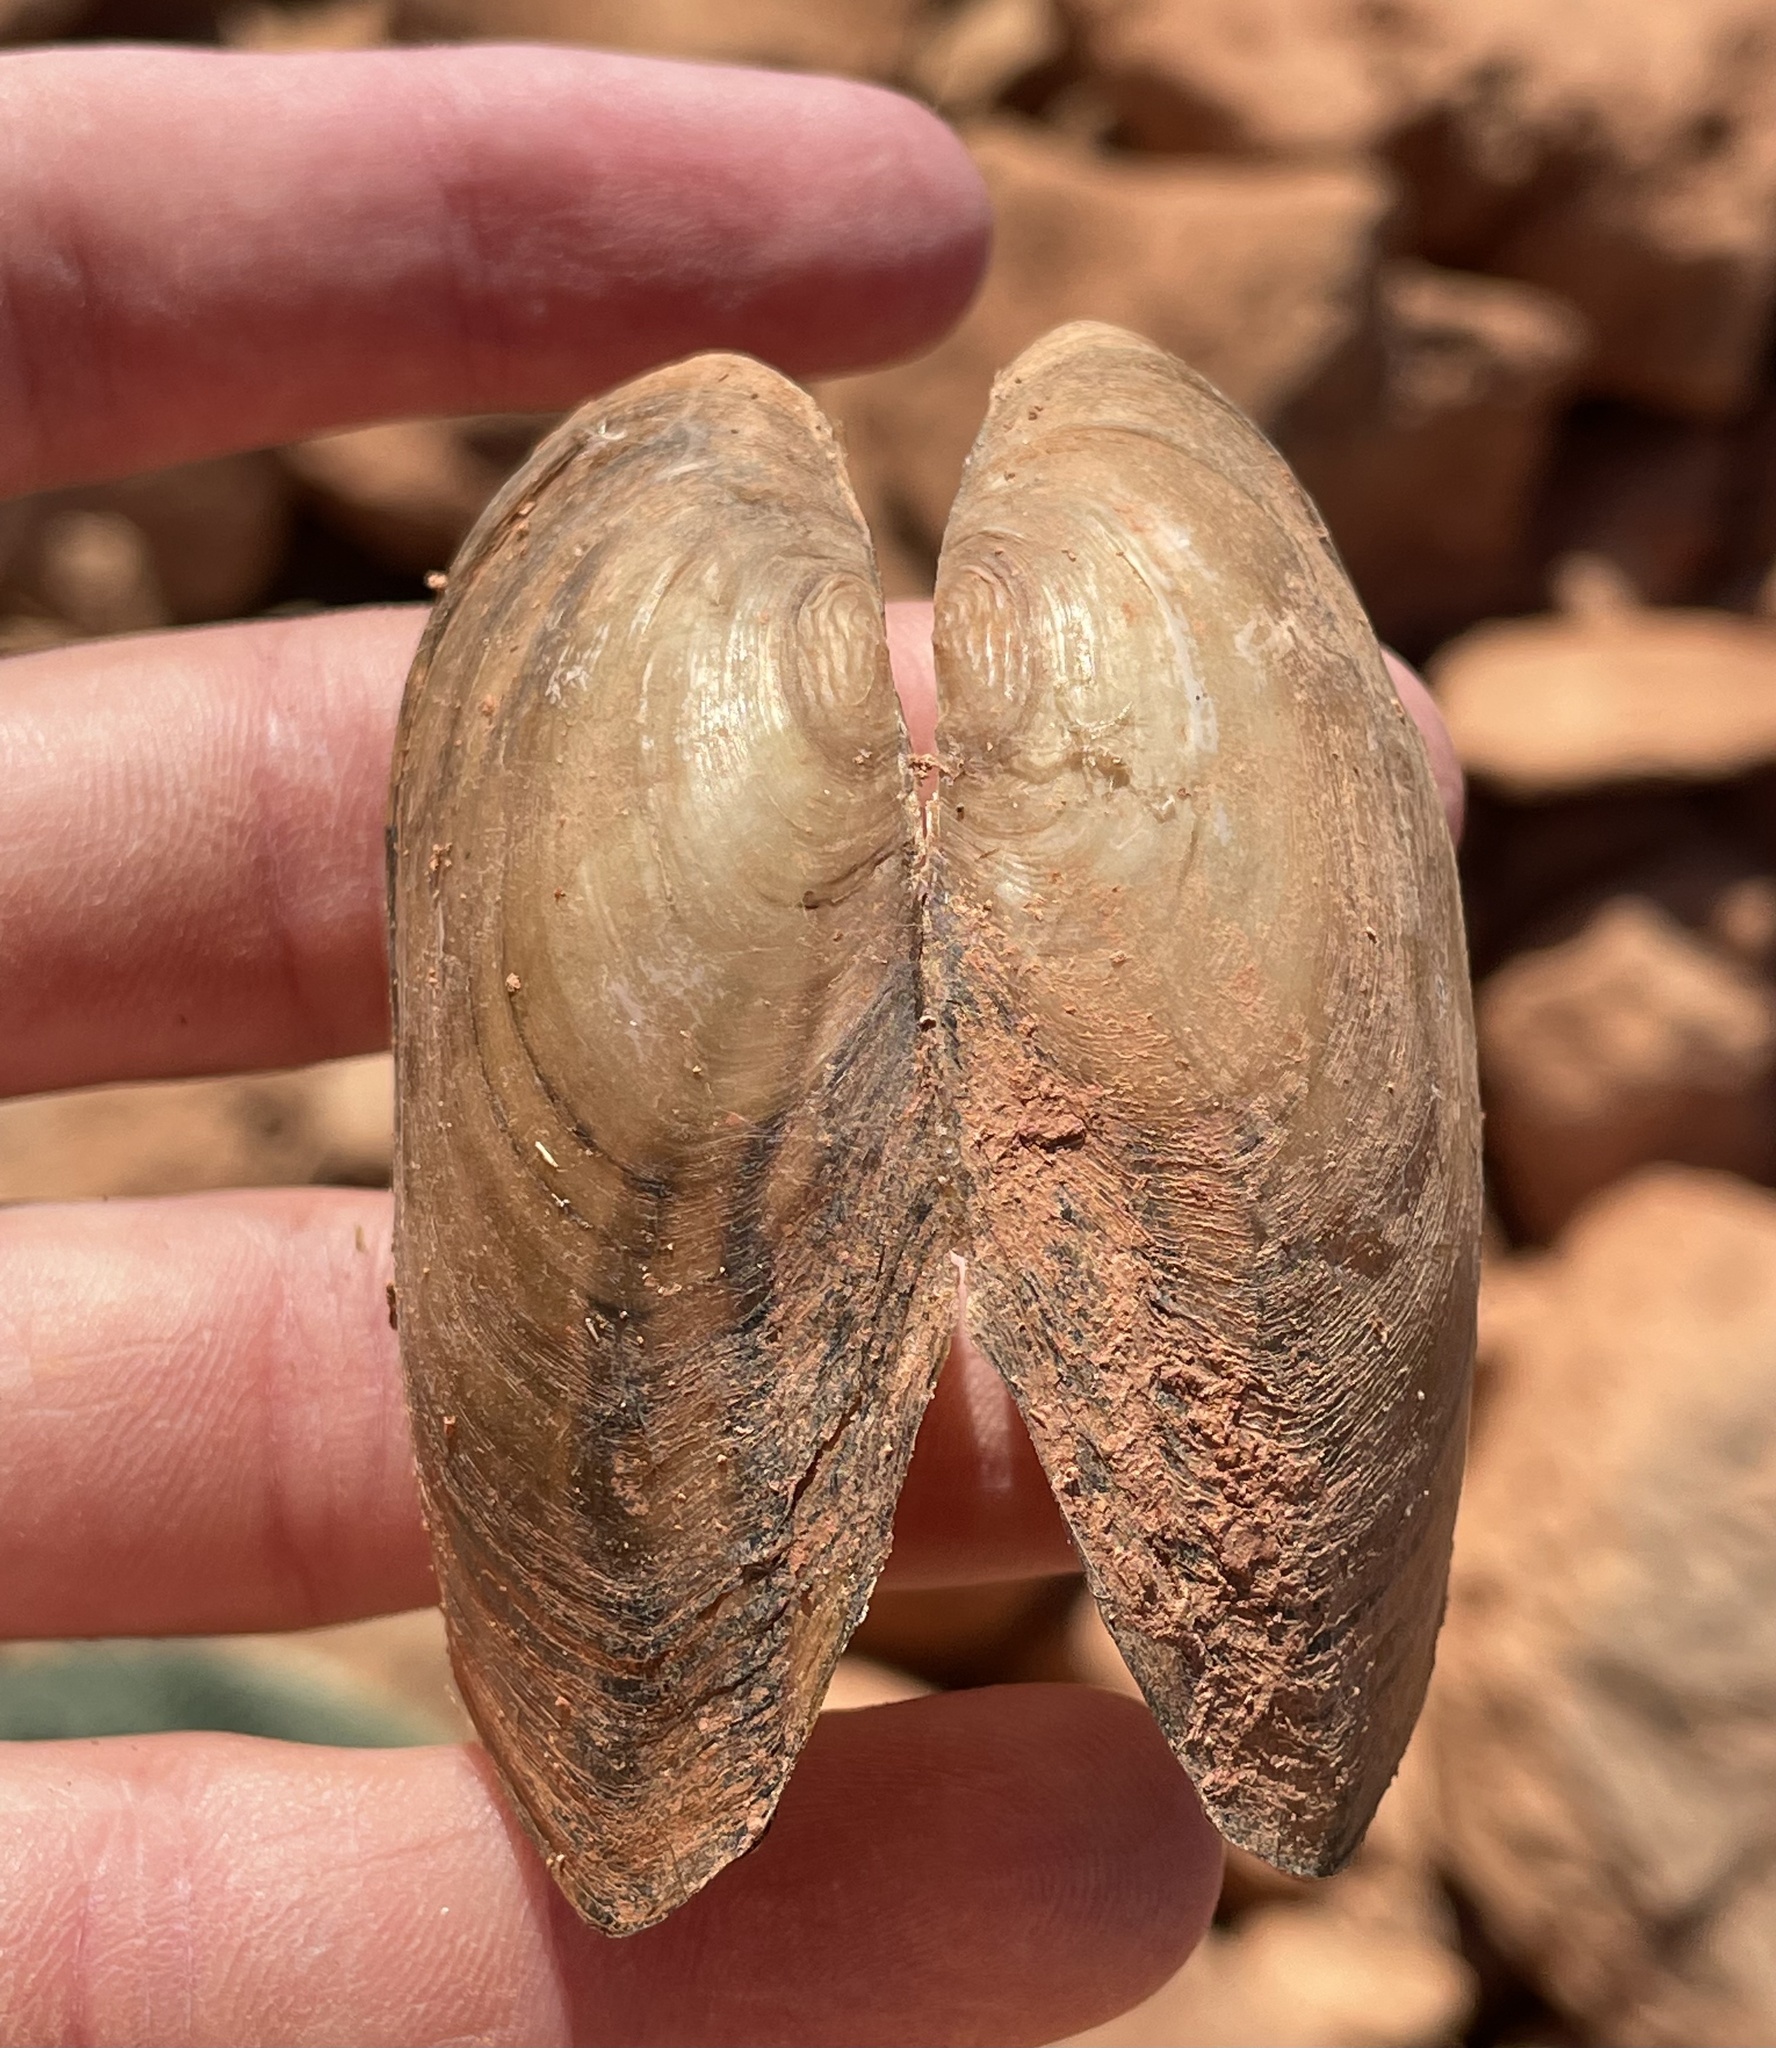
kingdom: Animalia
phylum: Mollusca
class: Bivalvia
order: Unionida
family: Unionidae
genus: Utterbackia
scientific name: Utterbackia imbecillis
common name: Paper pondshell
